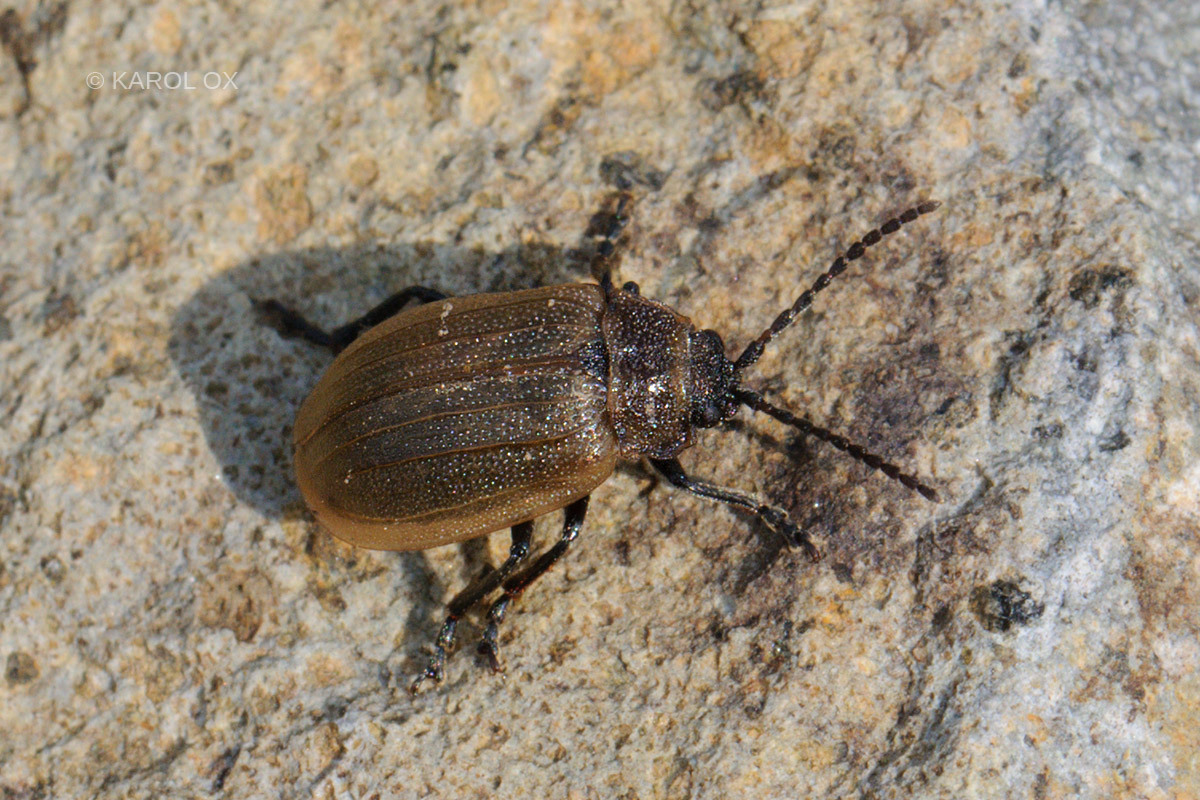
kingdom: Animalia
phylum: Arthropoda
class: Insecta
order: Coleoptera
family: Chrysomelidae
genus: Galeruca
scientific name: Galeruca pomonae
